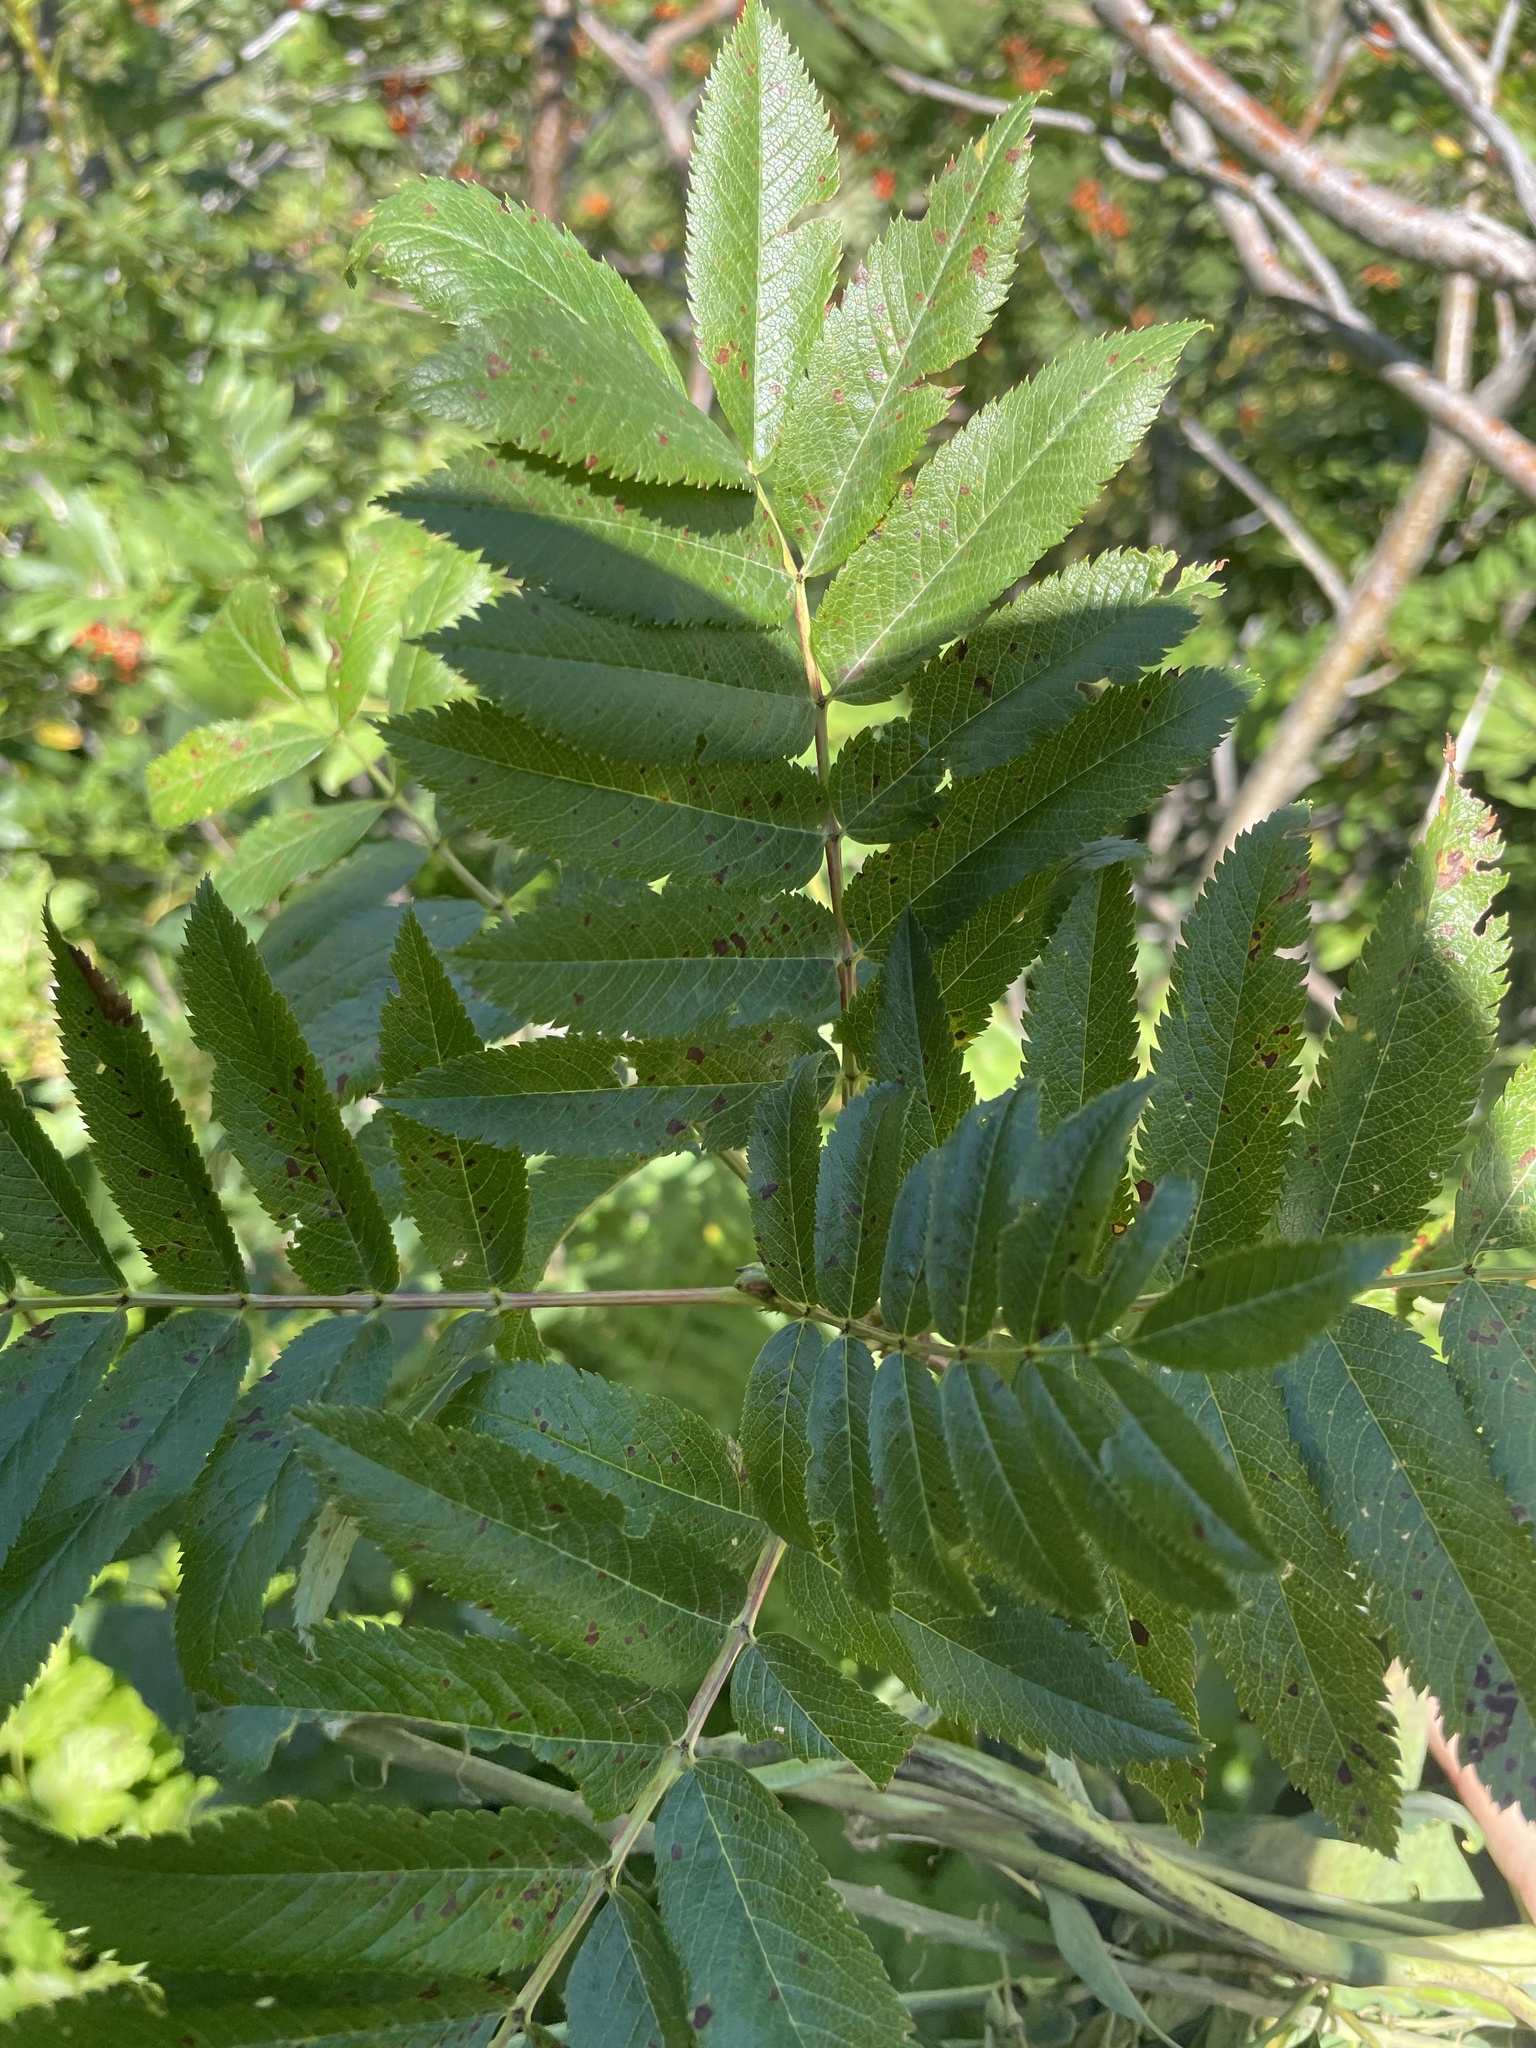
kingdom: Plantae
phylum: Tracheophyta
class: Magnoliopsida
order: Rosales
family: Rosaceae
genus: Sorbus
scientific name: Sorbus scopulina
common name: Greene's mountain-ash
